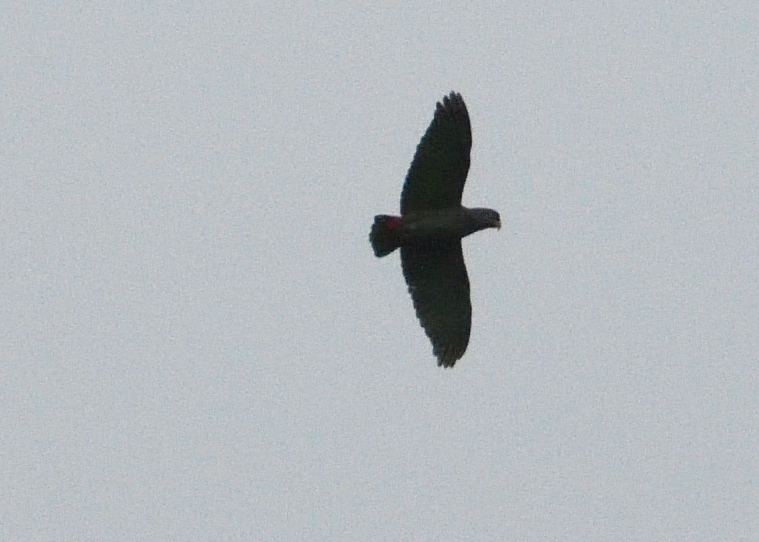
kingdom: Animalia
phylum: Chordata
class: Aves
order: Psittaciformes
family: Psittacidae
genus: Pionus
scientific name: Pionus sordidus
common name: Red-billed parrot
